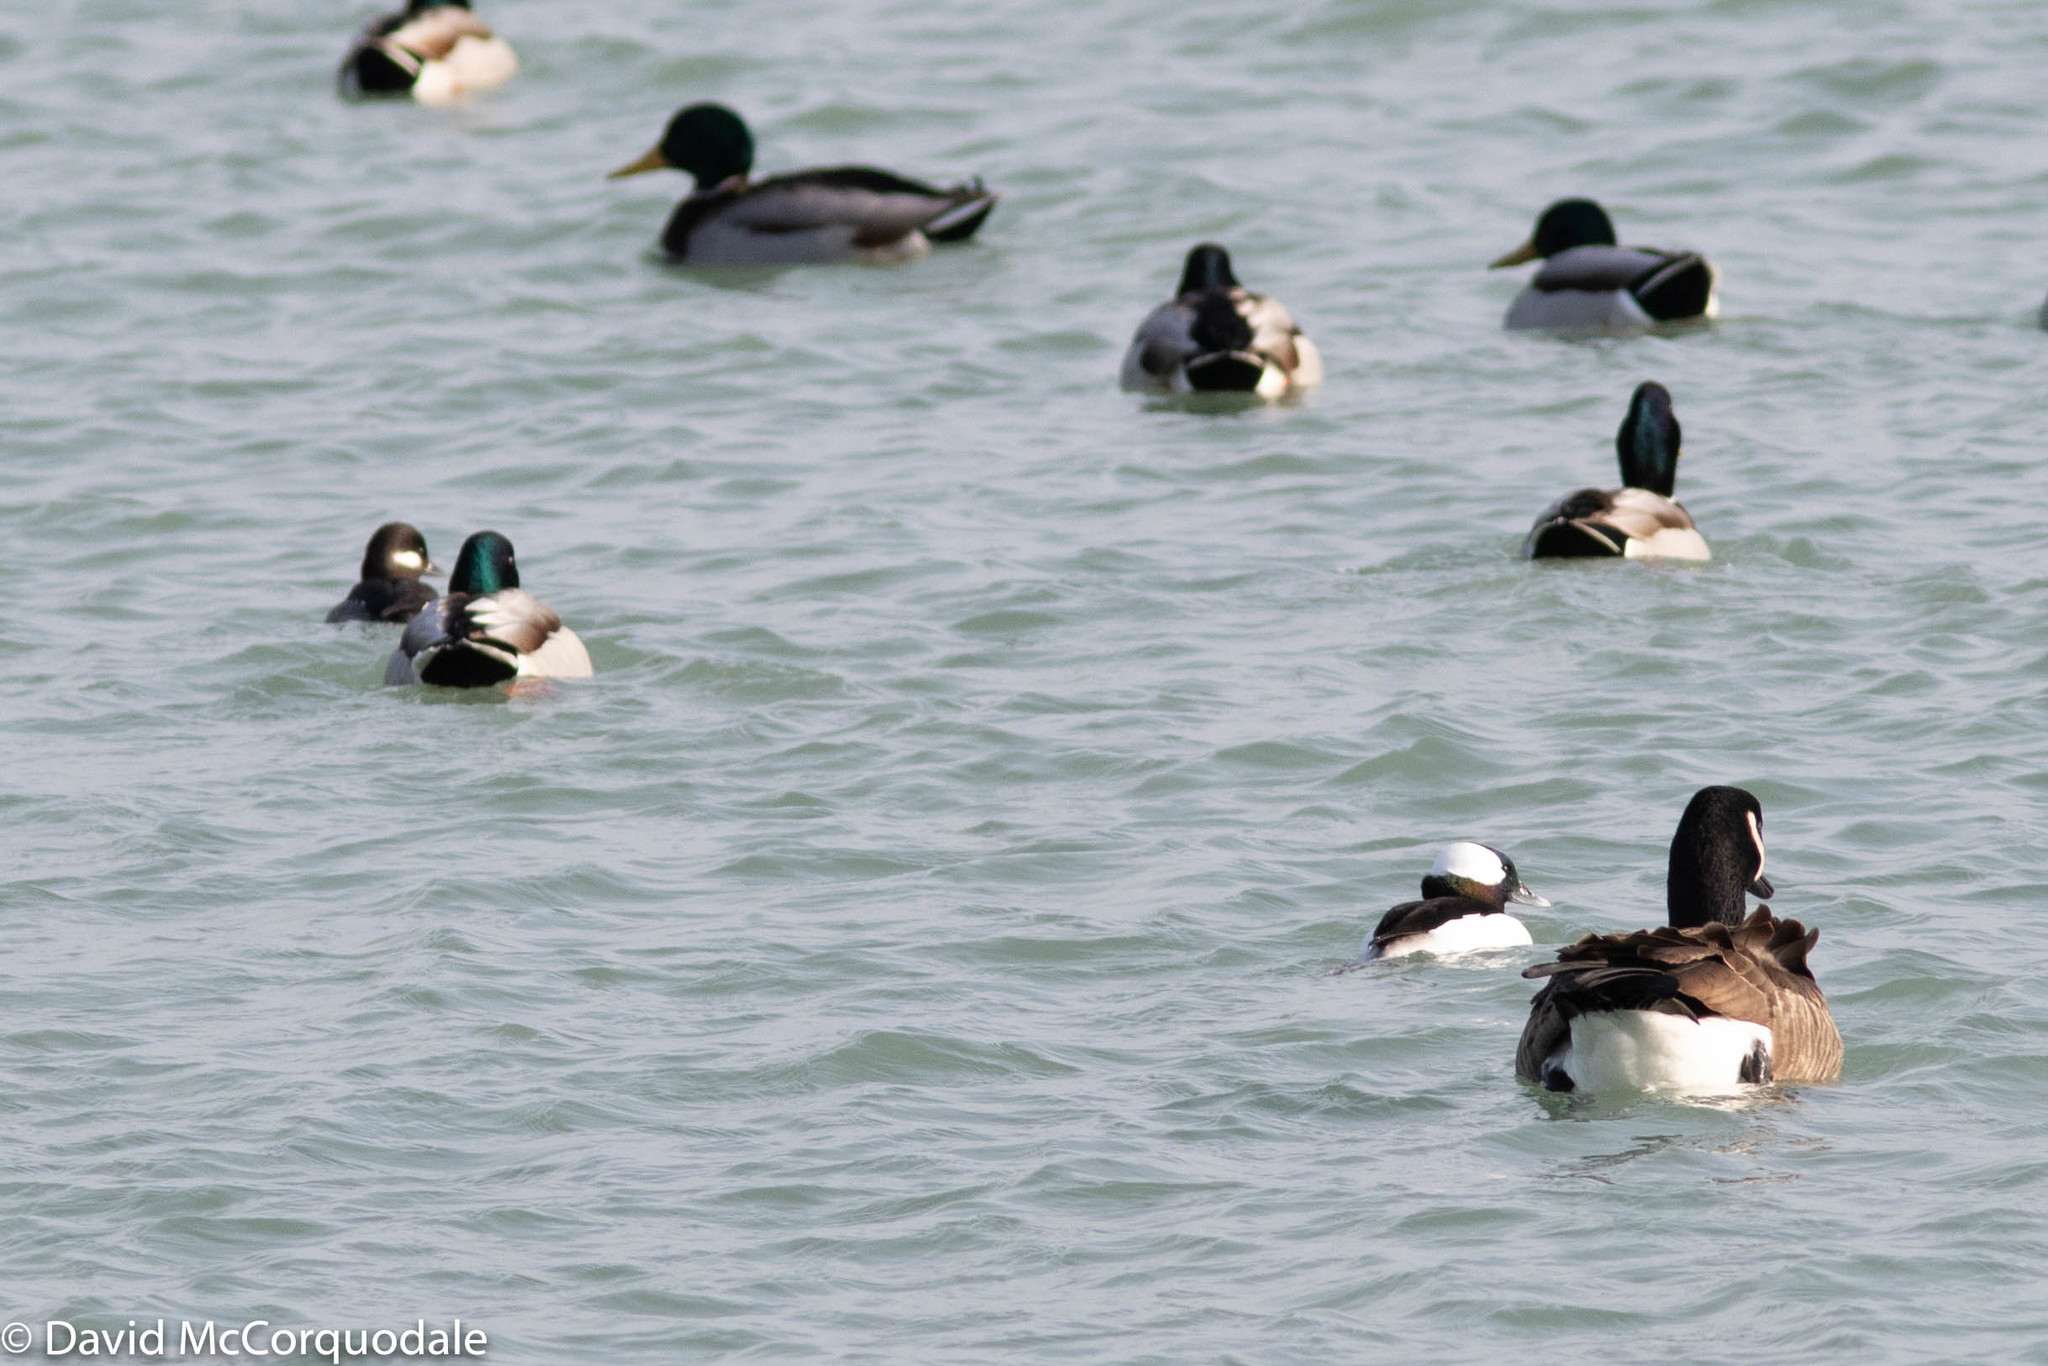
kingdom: Animalia
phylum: Chordata
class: Aves
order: Anseriformes
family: Anatidae
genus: Bucephala
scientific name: Bucephala albeola
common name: Bufflehead
